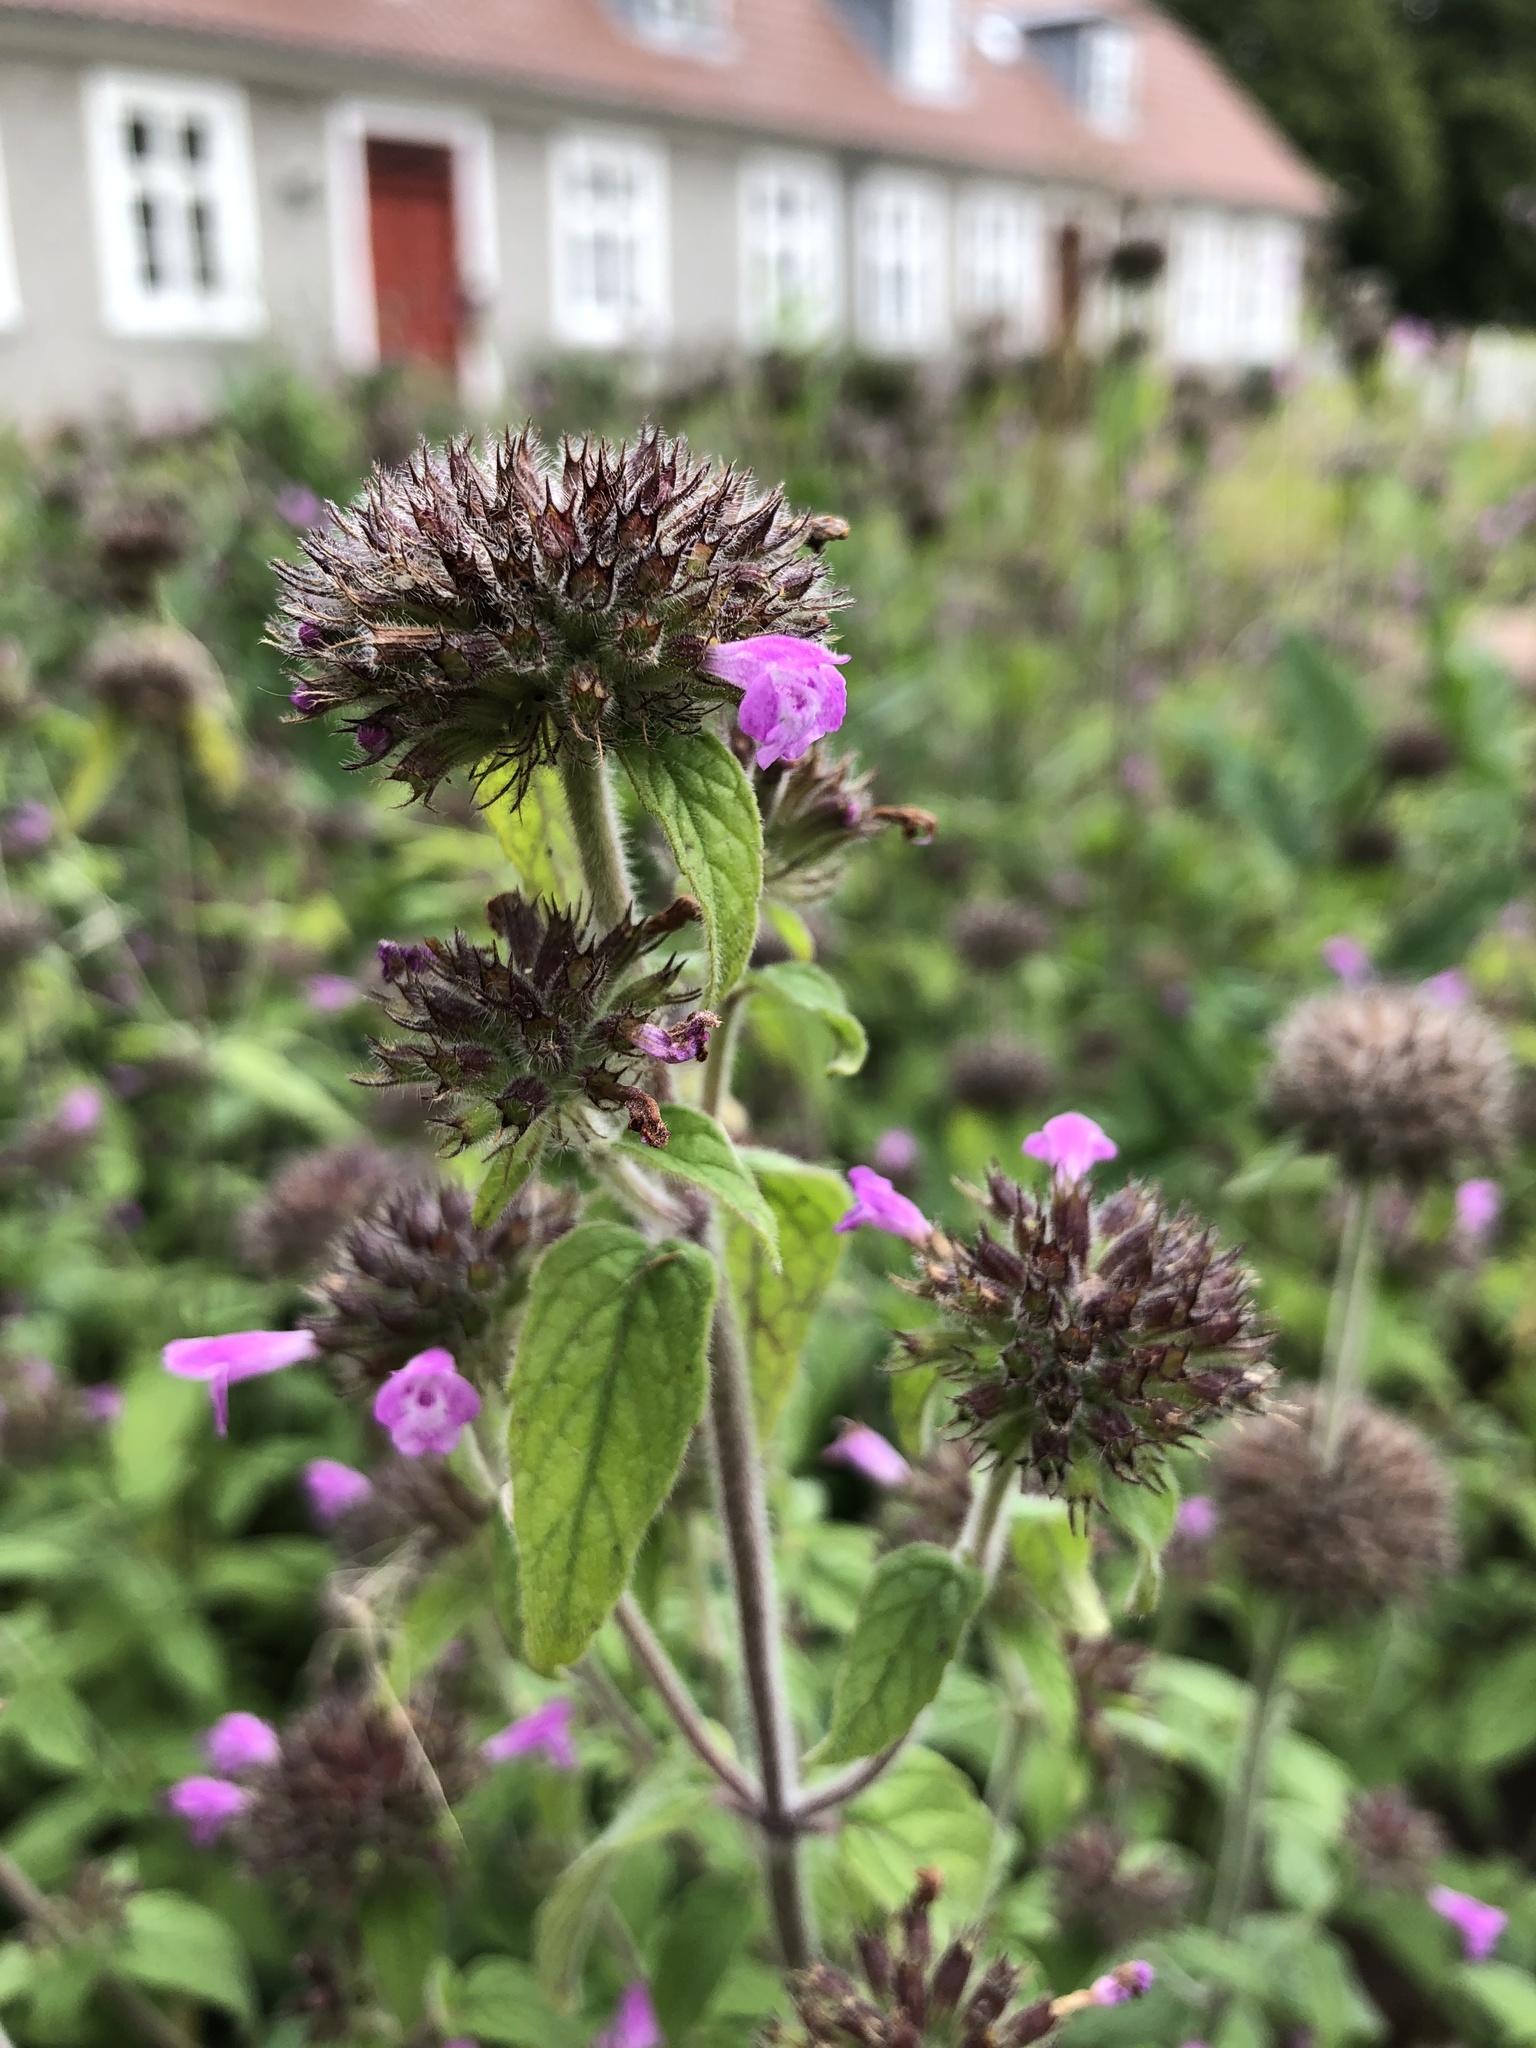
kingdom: Plantae
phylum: Tracheophyta
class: Magnoliopsida
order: Lamiales
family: Lamiaceae
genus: Clinopodium
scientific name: Clinopodium vulgare
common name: Wild basil
